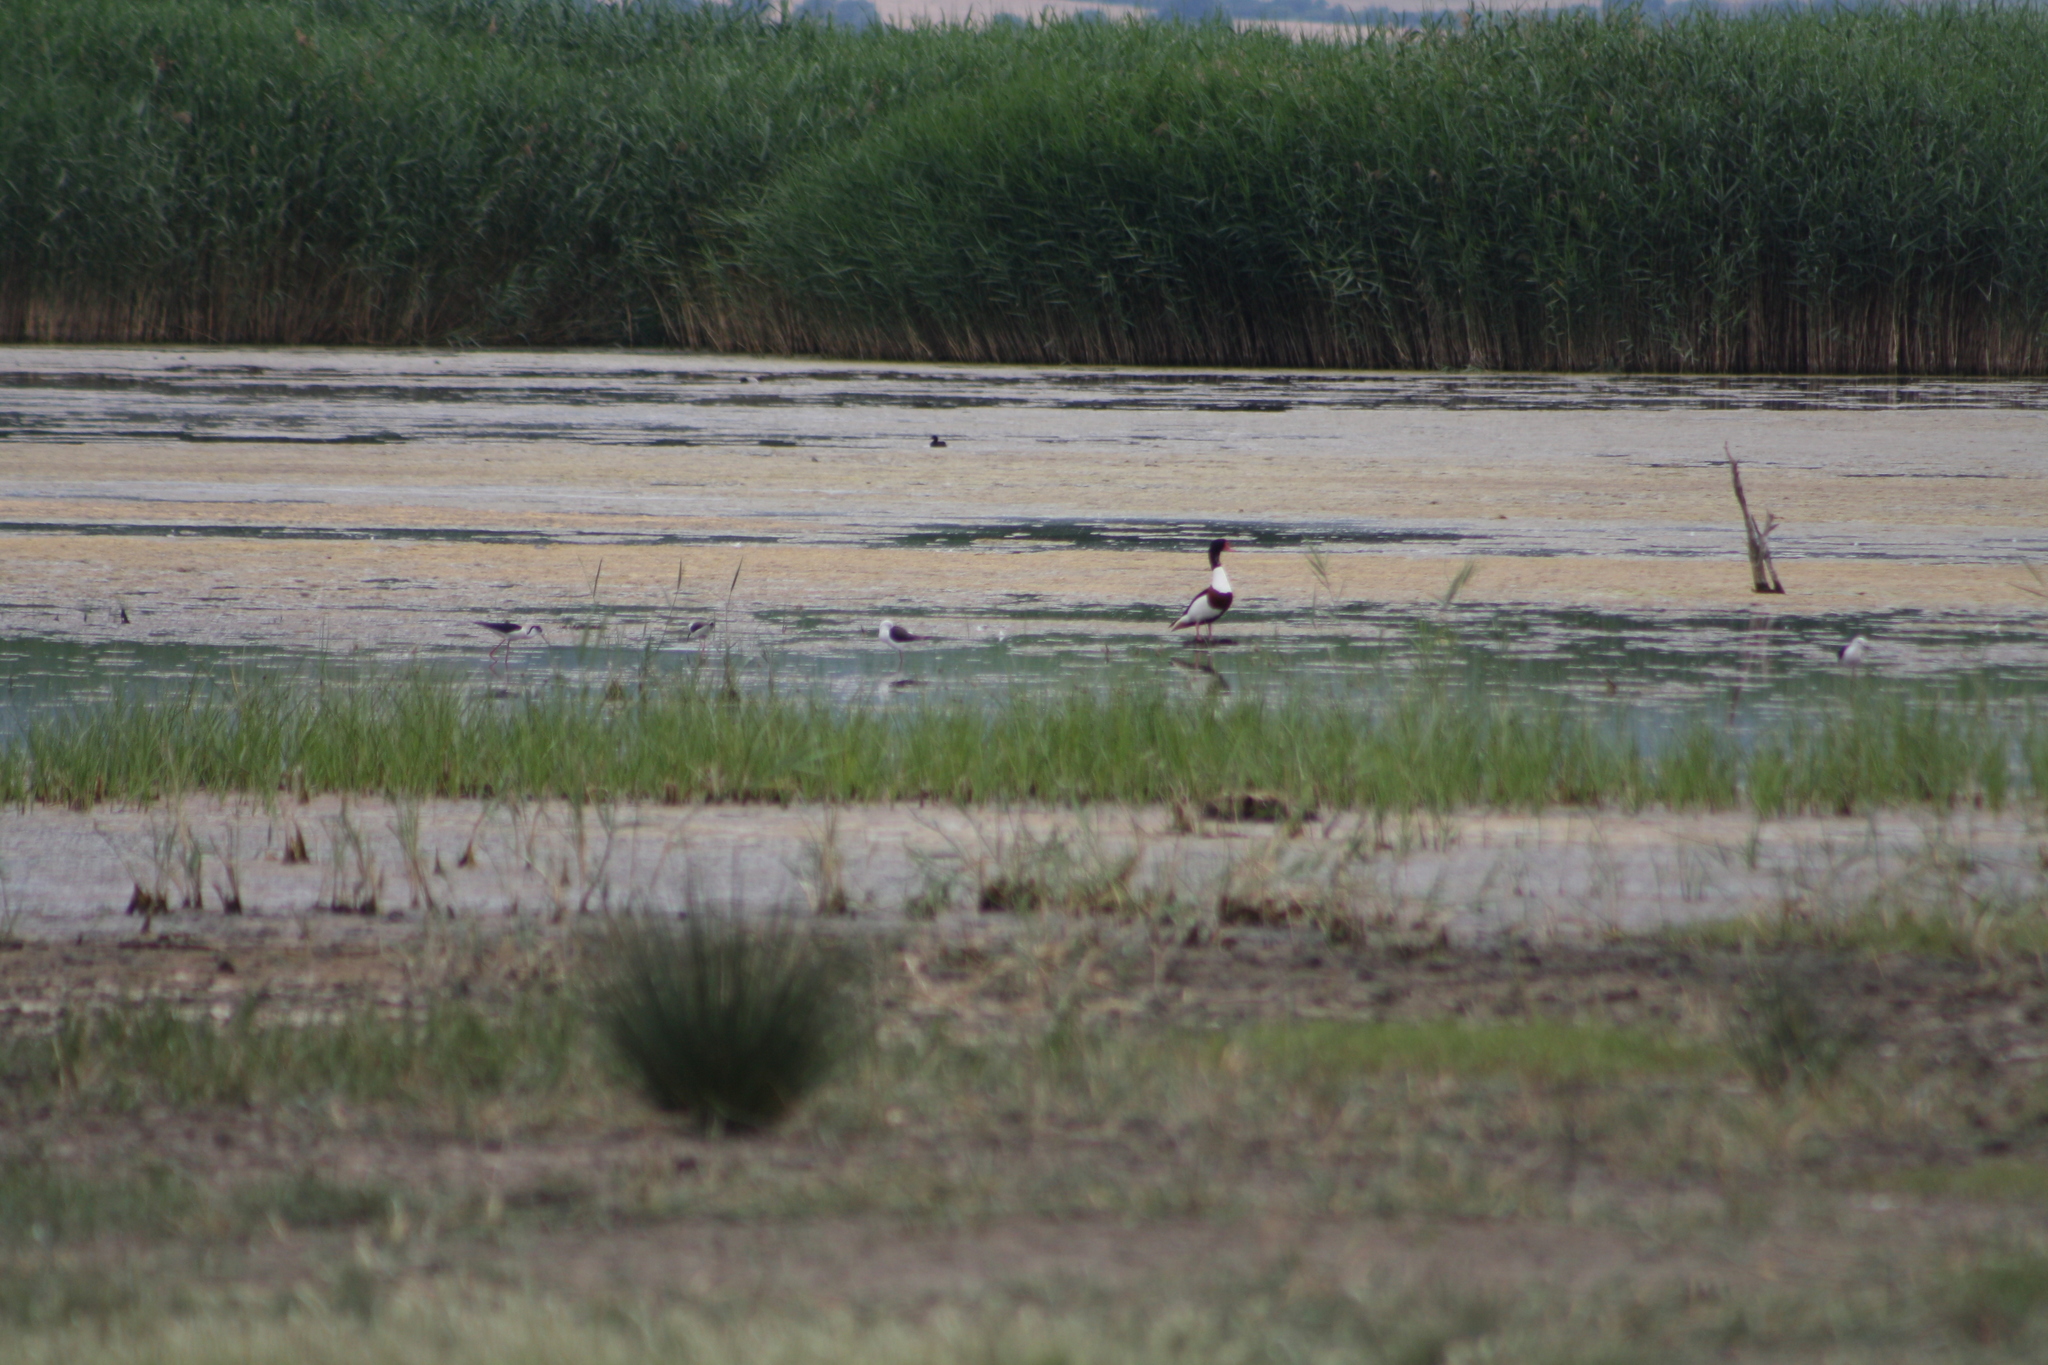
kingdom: Animalia
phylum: Chordata
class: Aves
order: Anseriformes
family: Anatidae
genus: Tadorna
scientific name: Tadorna tadorna
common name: Common shelduck
